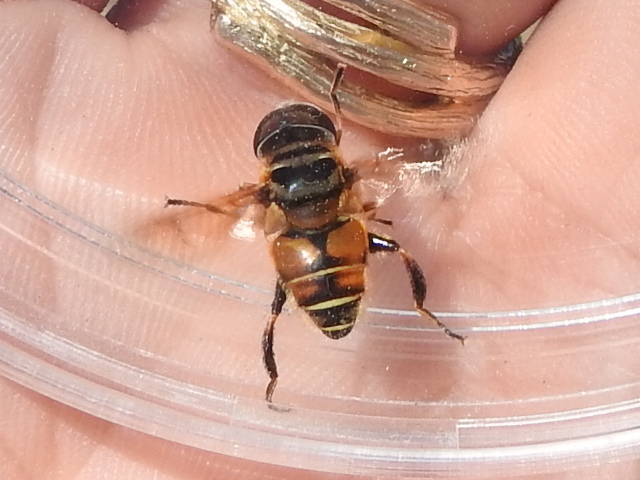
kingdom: Animalia
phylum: Arthropoda
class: Insecta
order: Diptera
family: Syrphidae
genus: Palpada
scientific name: Palpada vinetorum
